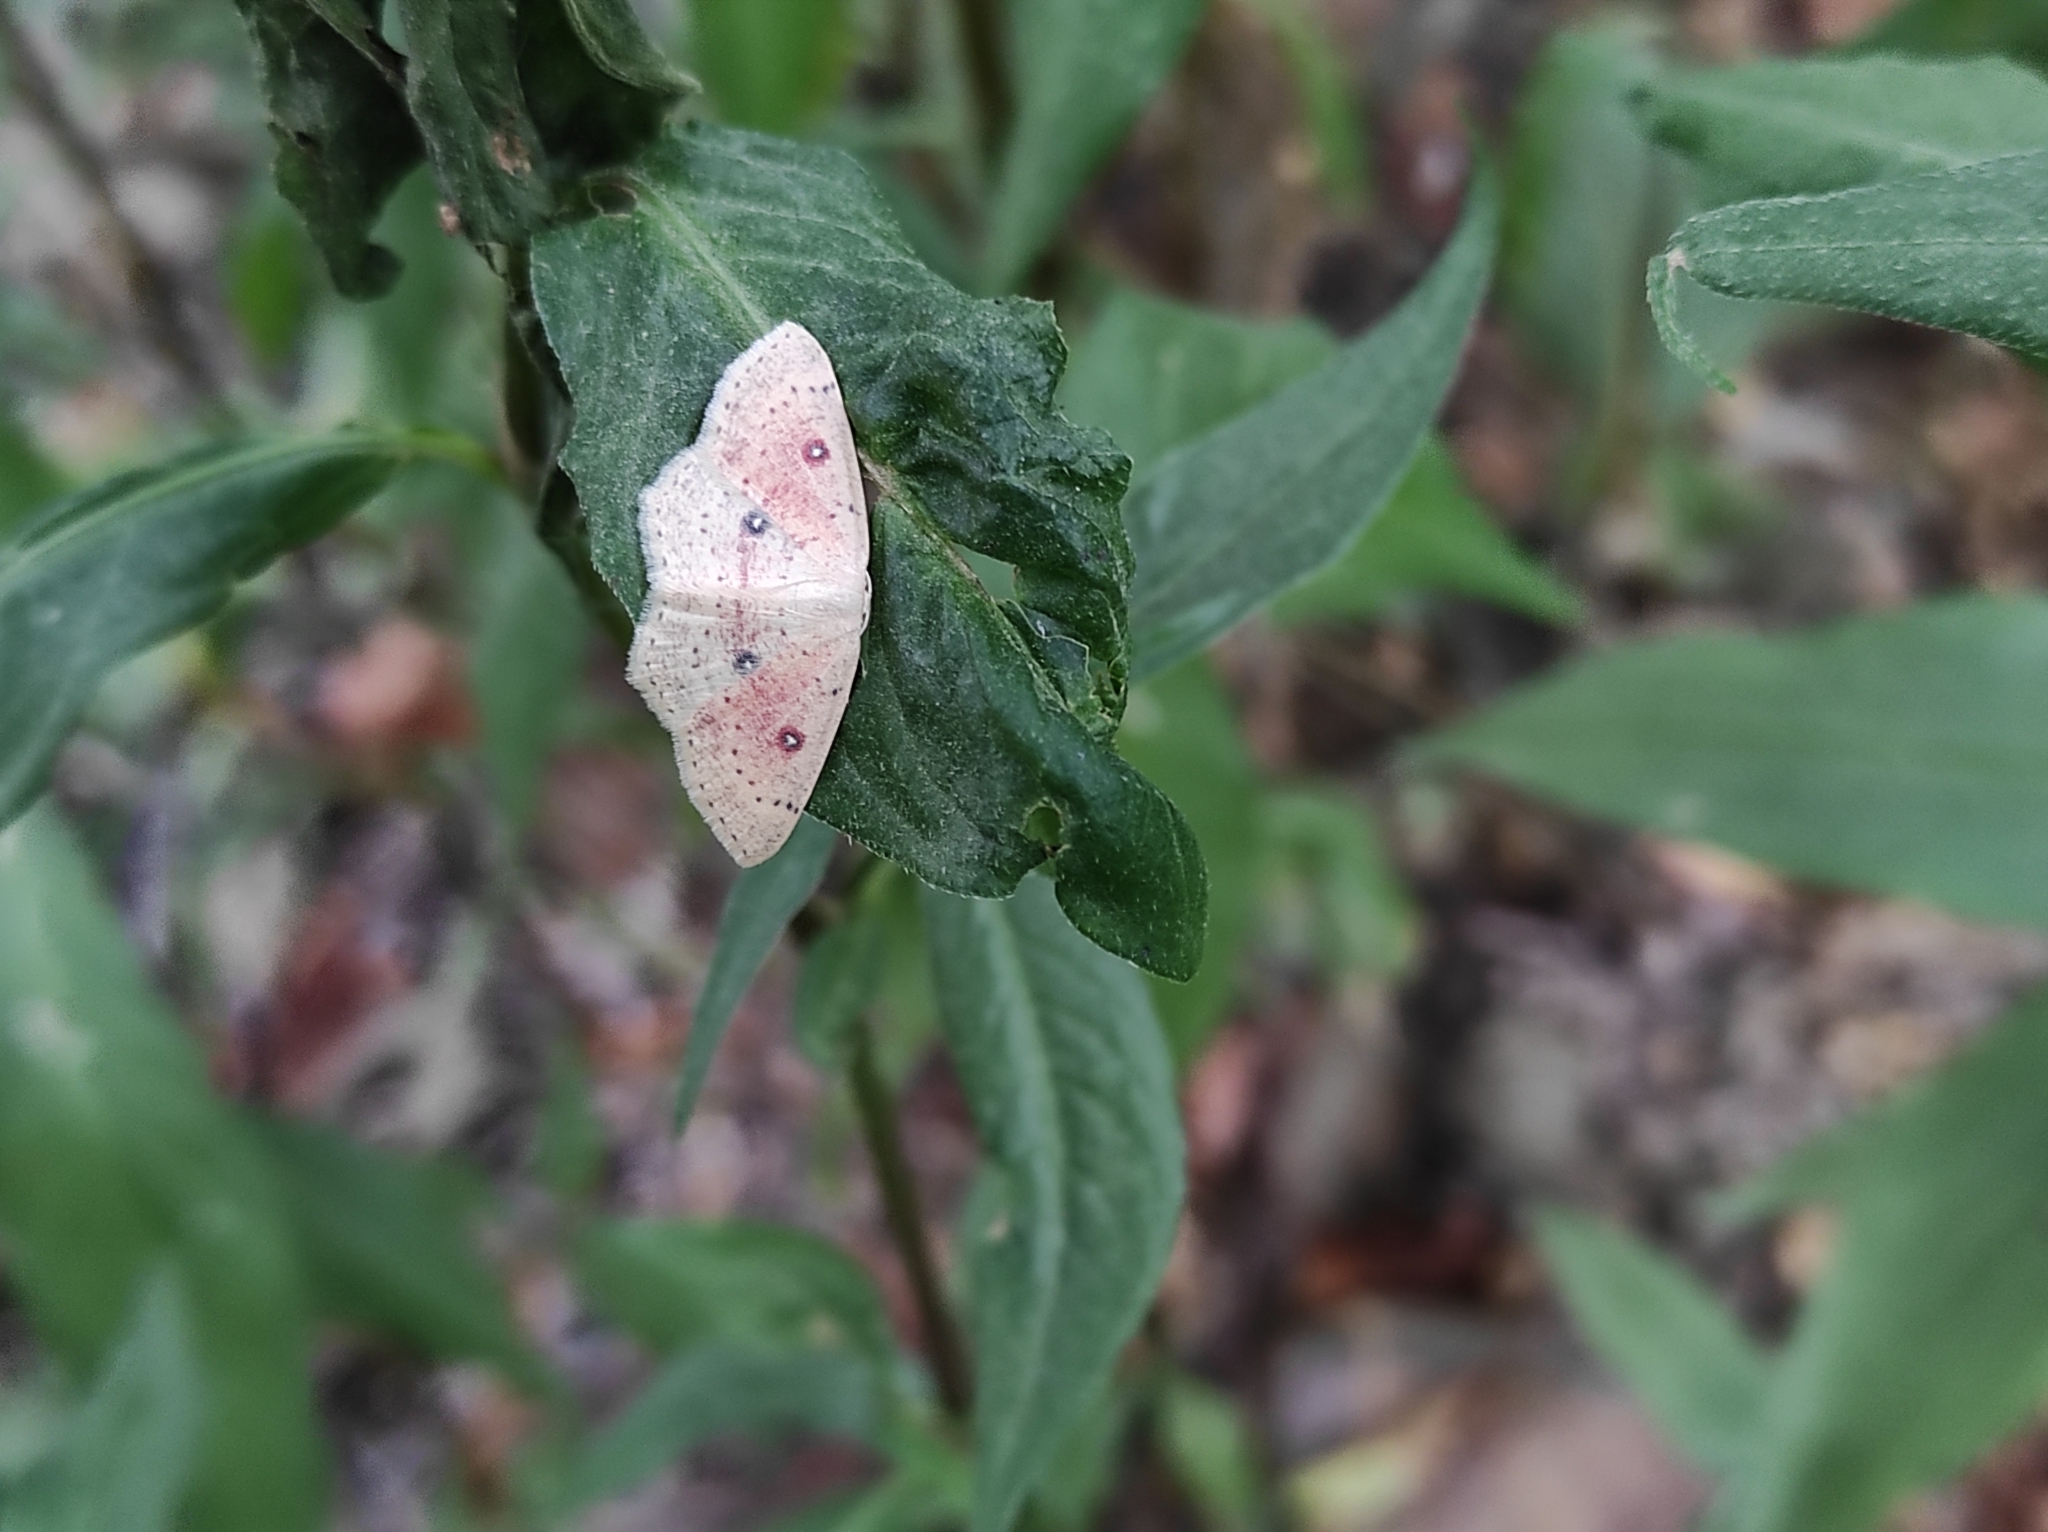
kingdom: Animalia
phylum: Arthropoda
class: Insecta
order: Lepidoptera
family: Geometridae
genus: Cyclophora
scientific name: Cyclophora albipunctata
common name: Birch mocha
